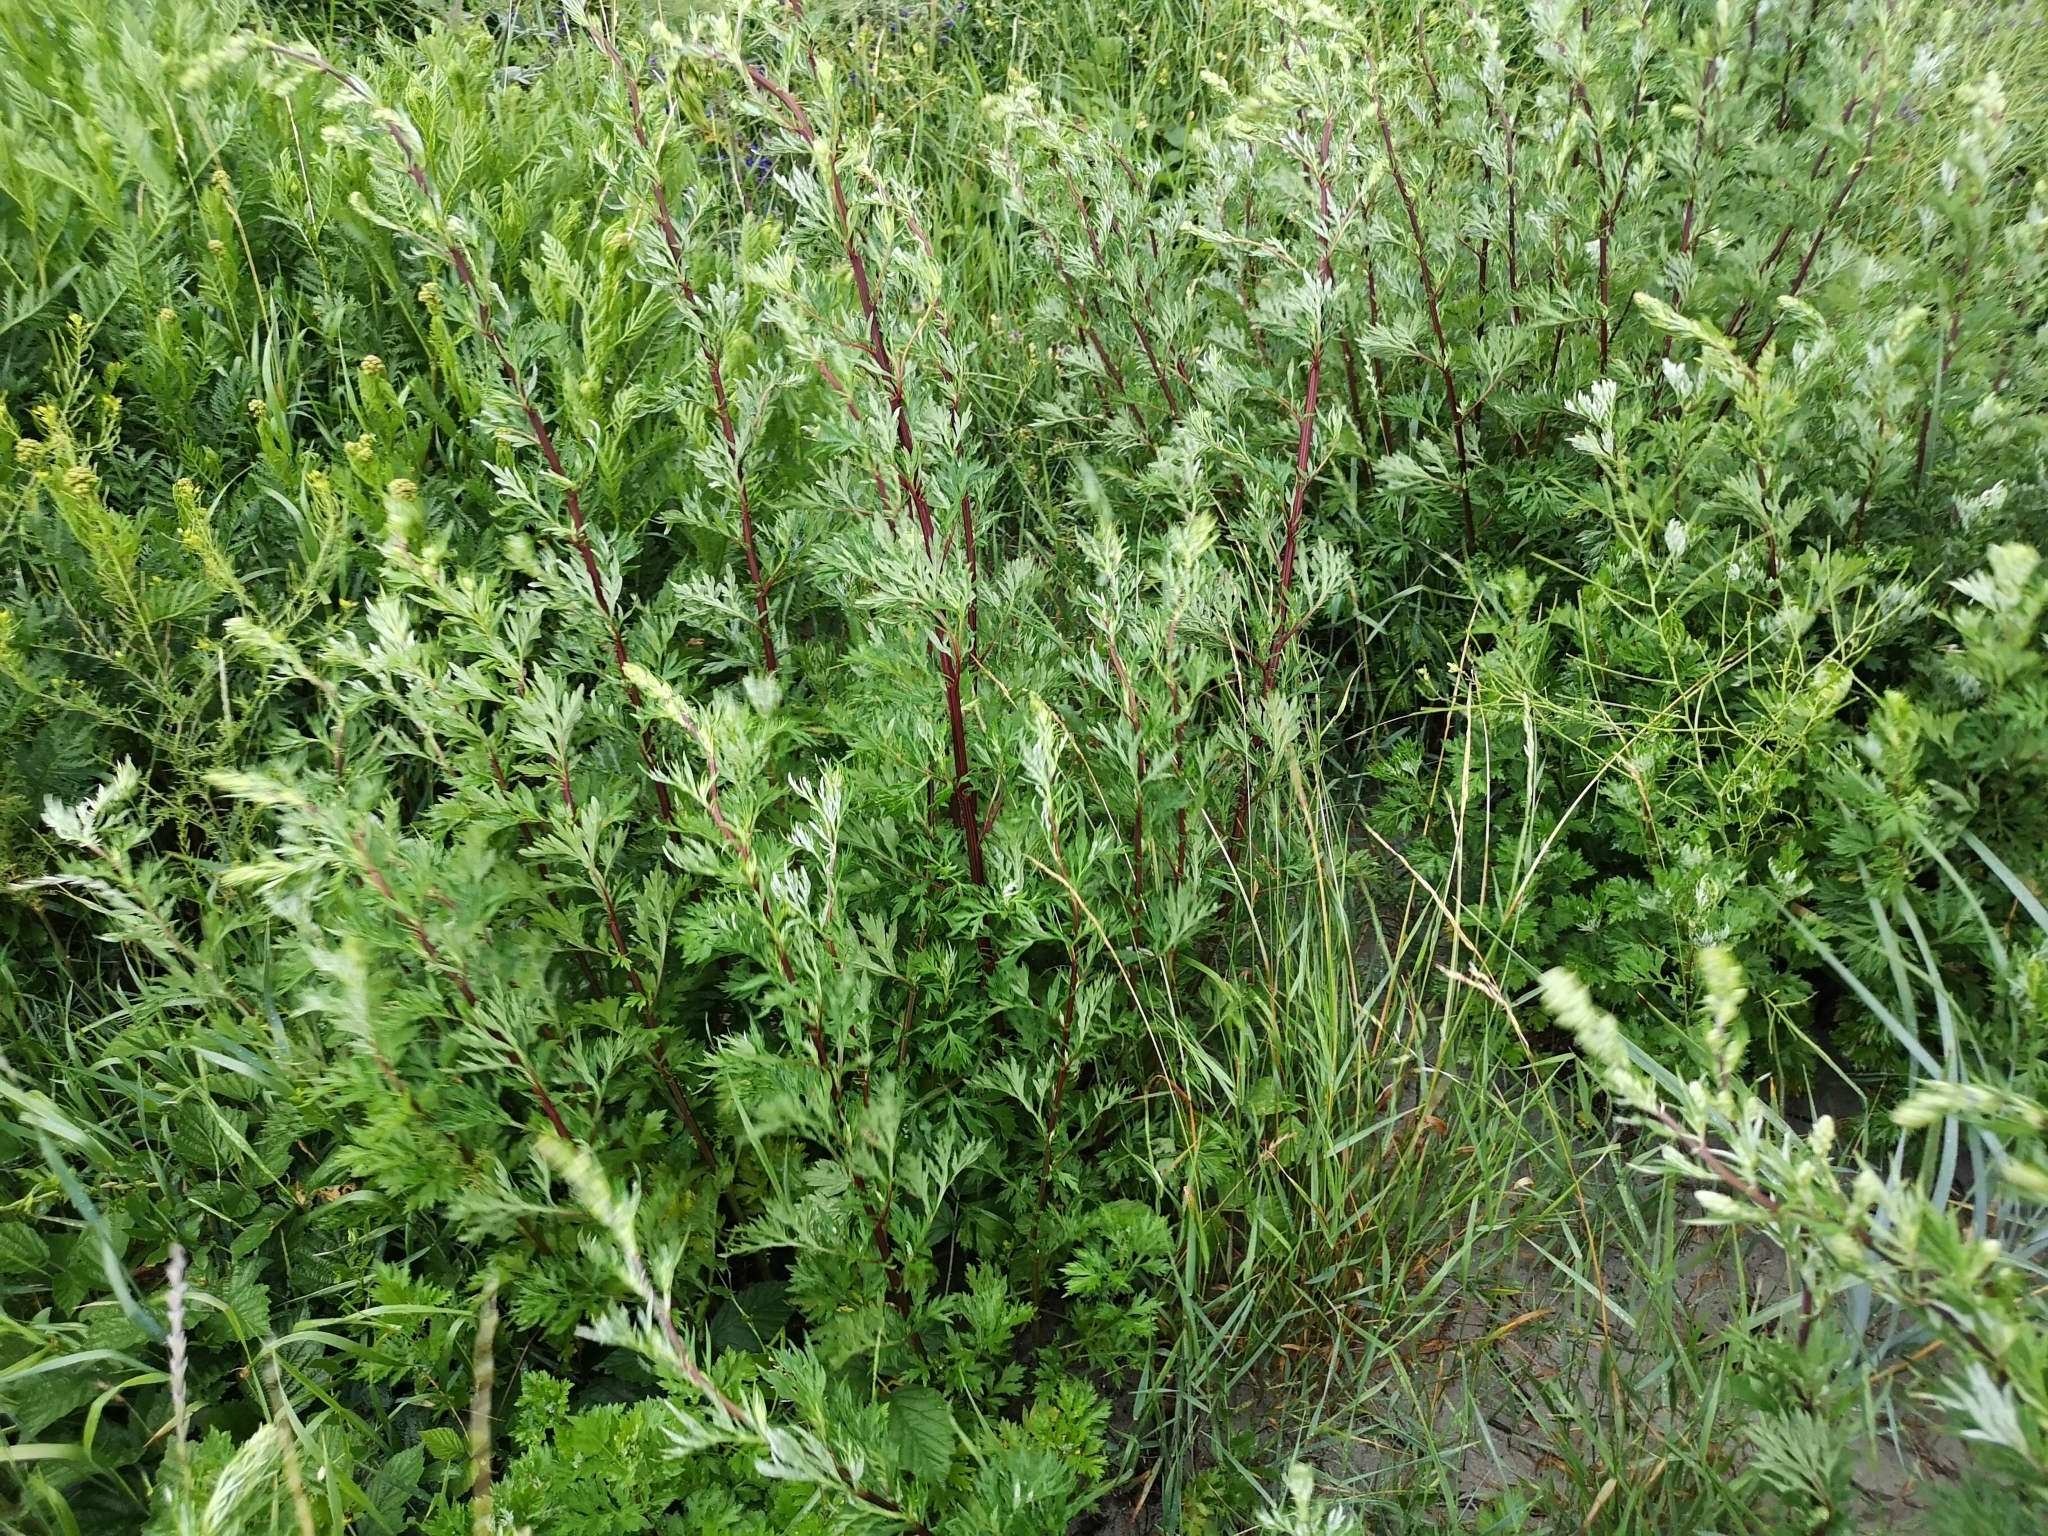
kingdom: Plantae
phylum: Tracheophyta
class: Magnoliopsida
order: Asterales
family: Asteraceae
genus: Artemisia
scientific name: Artemisia vulgaris
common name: Mugwort
